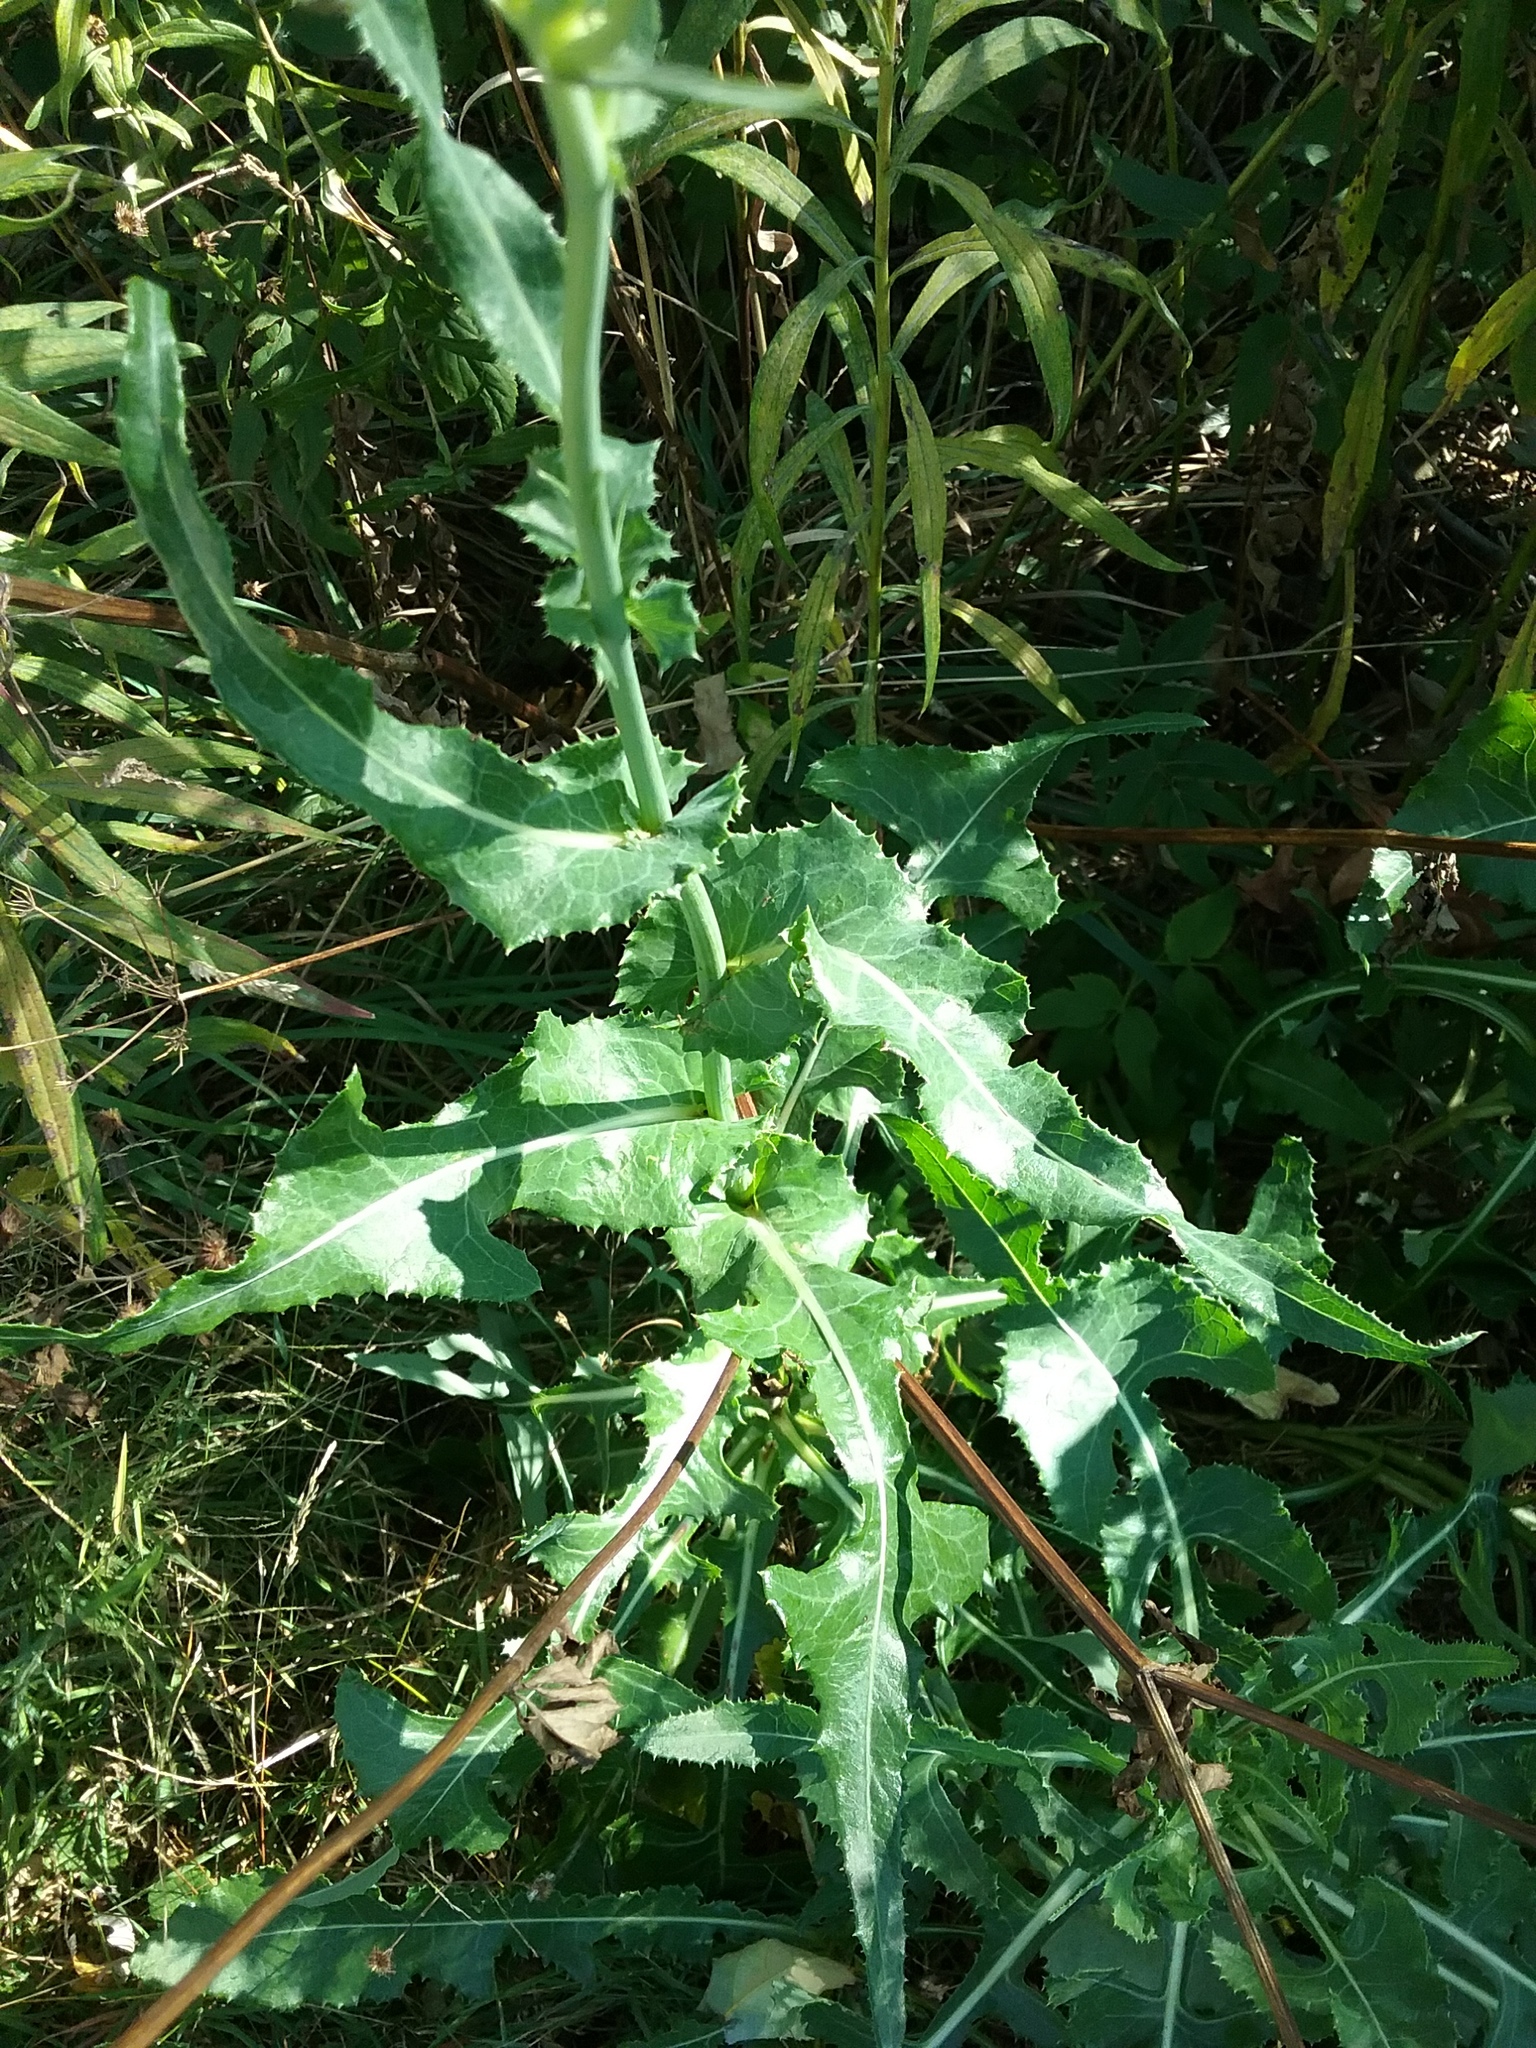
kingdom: Plantae
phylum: Tracheophyta
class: Magnoliopsida
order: Asterales
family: Asteraceae
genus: Sonchus
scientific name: Sonchus arvensis
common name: Perennial sow-thistle
